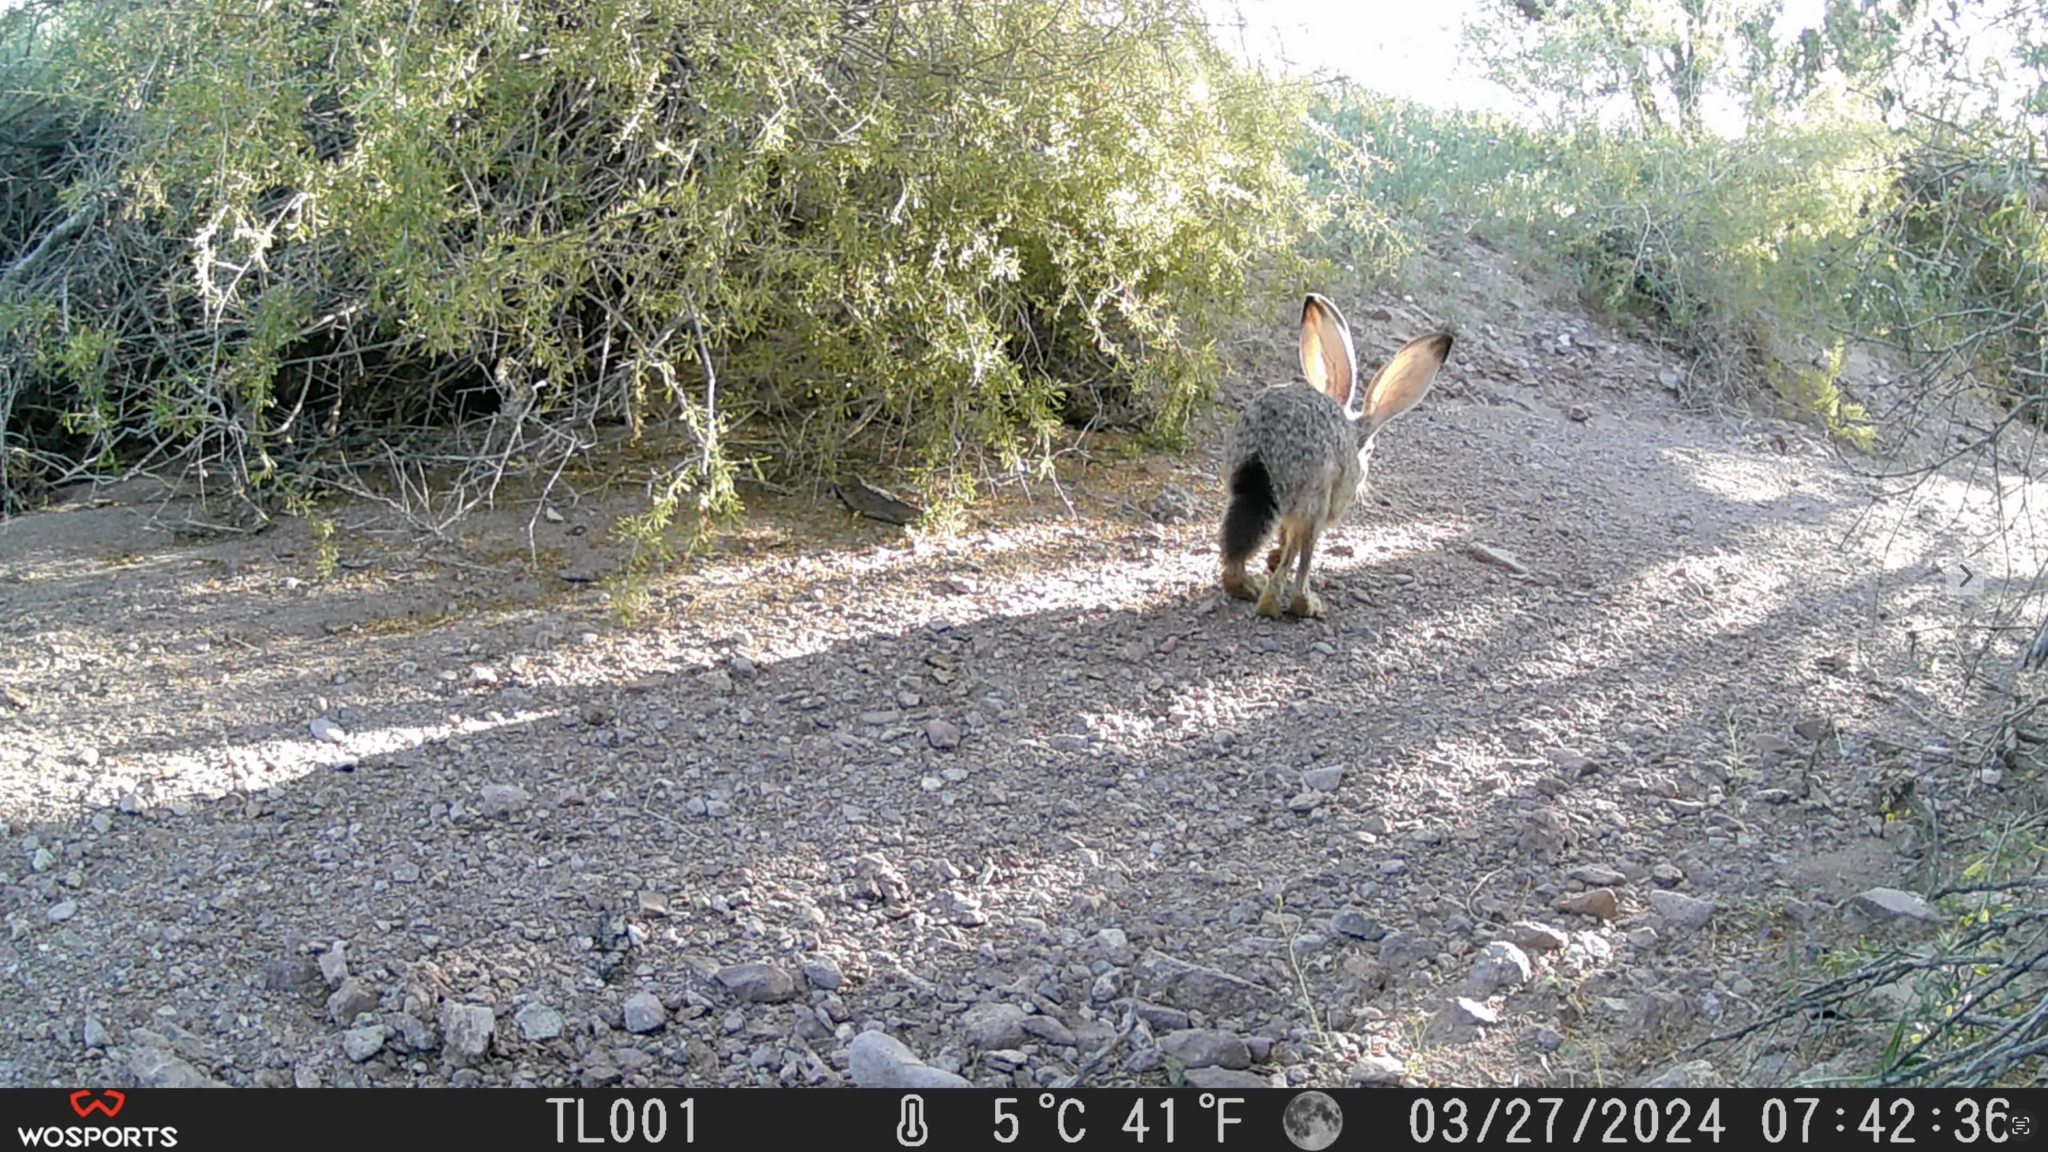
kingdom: Animalia
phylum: Chordata
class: Mammalia
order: Lagomorpha
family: Leporidae
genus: Lepus
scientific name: Lepus californicus
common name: Black-tailed jackrabbit
